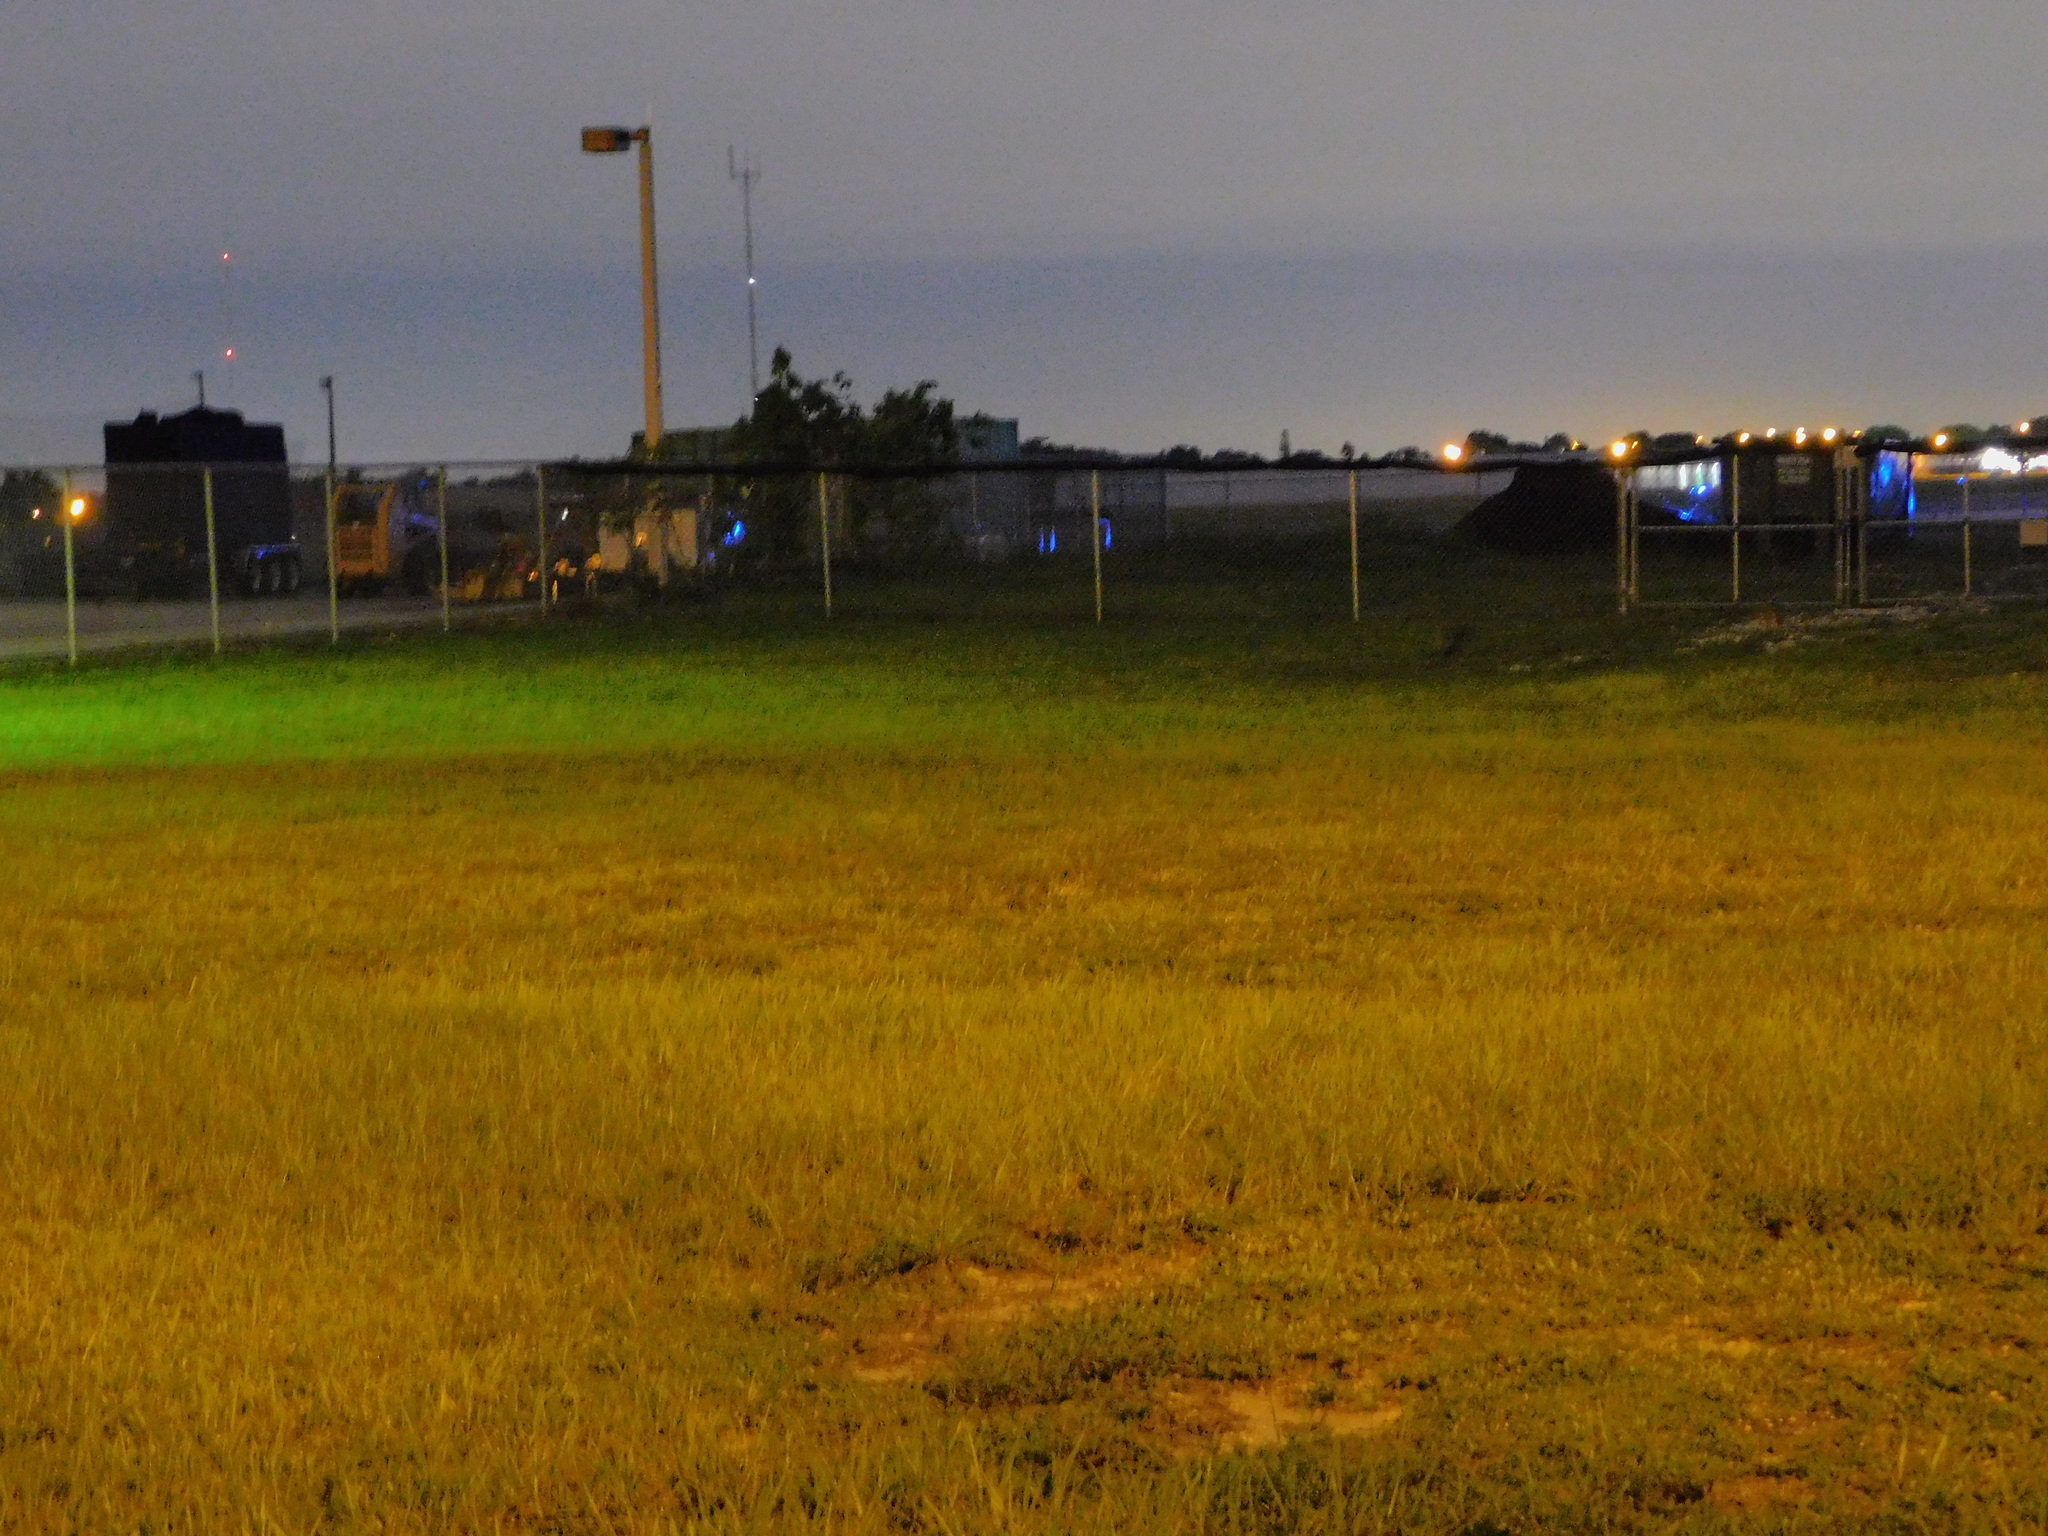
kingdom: Animalia
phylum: Chordata
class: Mammalia
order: Carnivora
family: Canidae
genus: Urocyon
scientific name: Urocyon cinereoargenteus
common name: Gray fox
